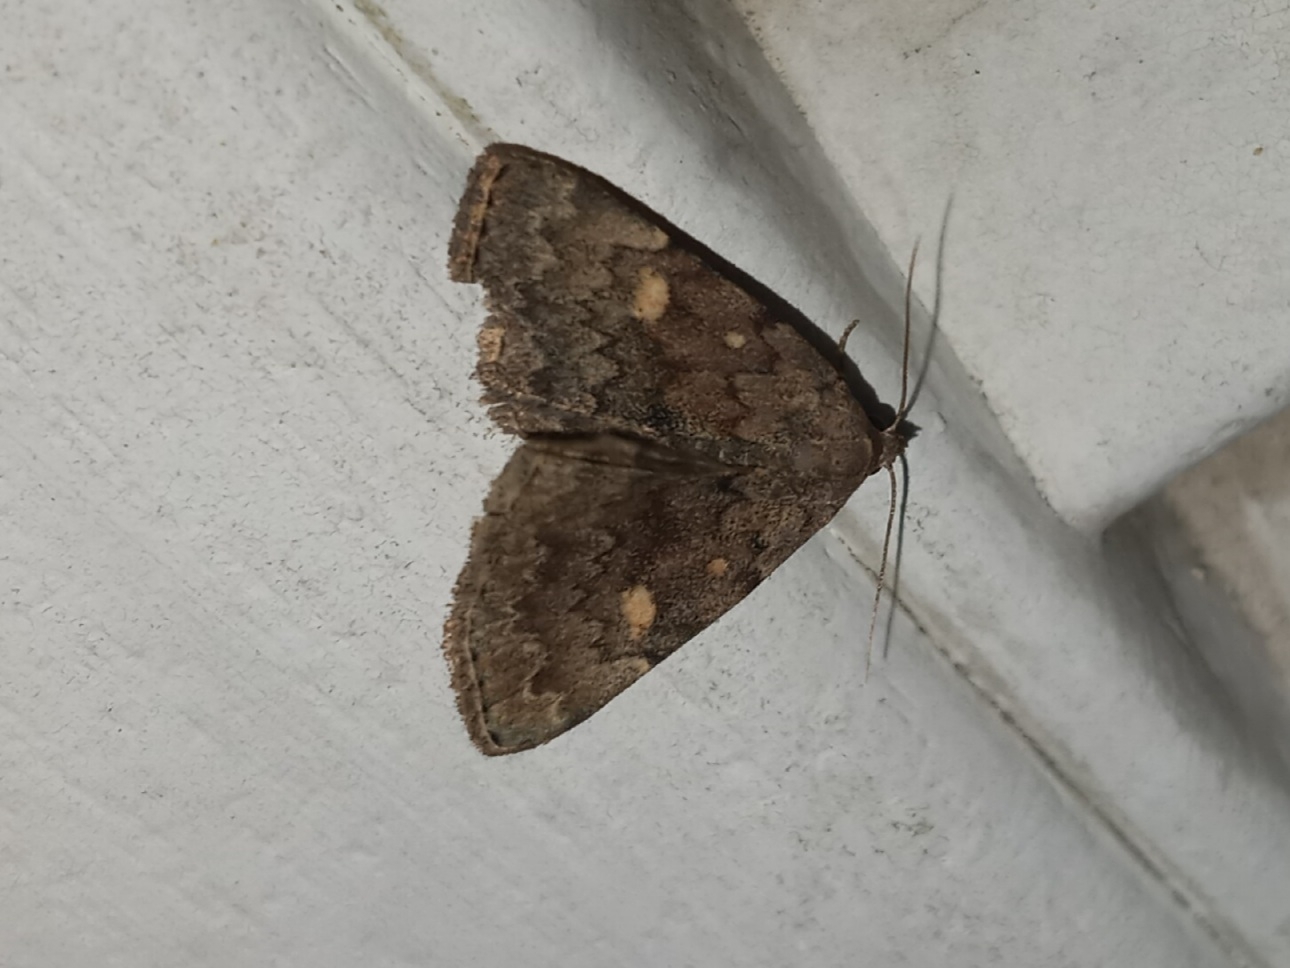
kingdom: Animalia
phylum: Arthropoda
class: Insecta
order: Lepidoptera
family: Erebidae
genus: Idia
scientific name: Idia aemula
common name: Common idia moth
